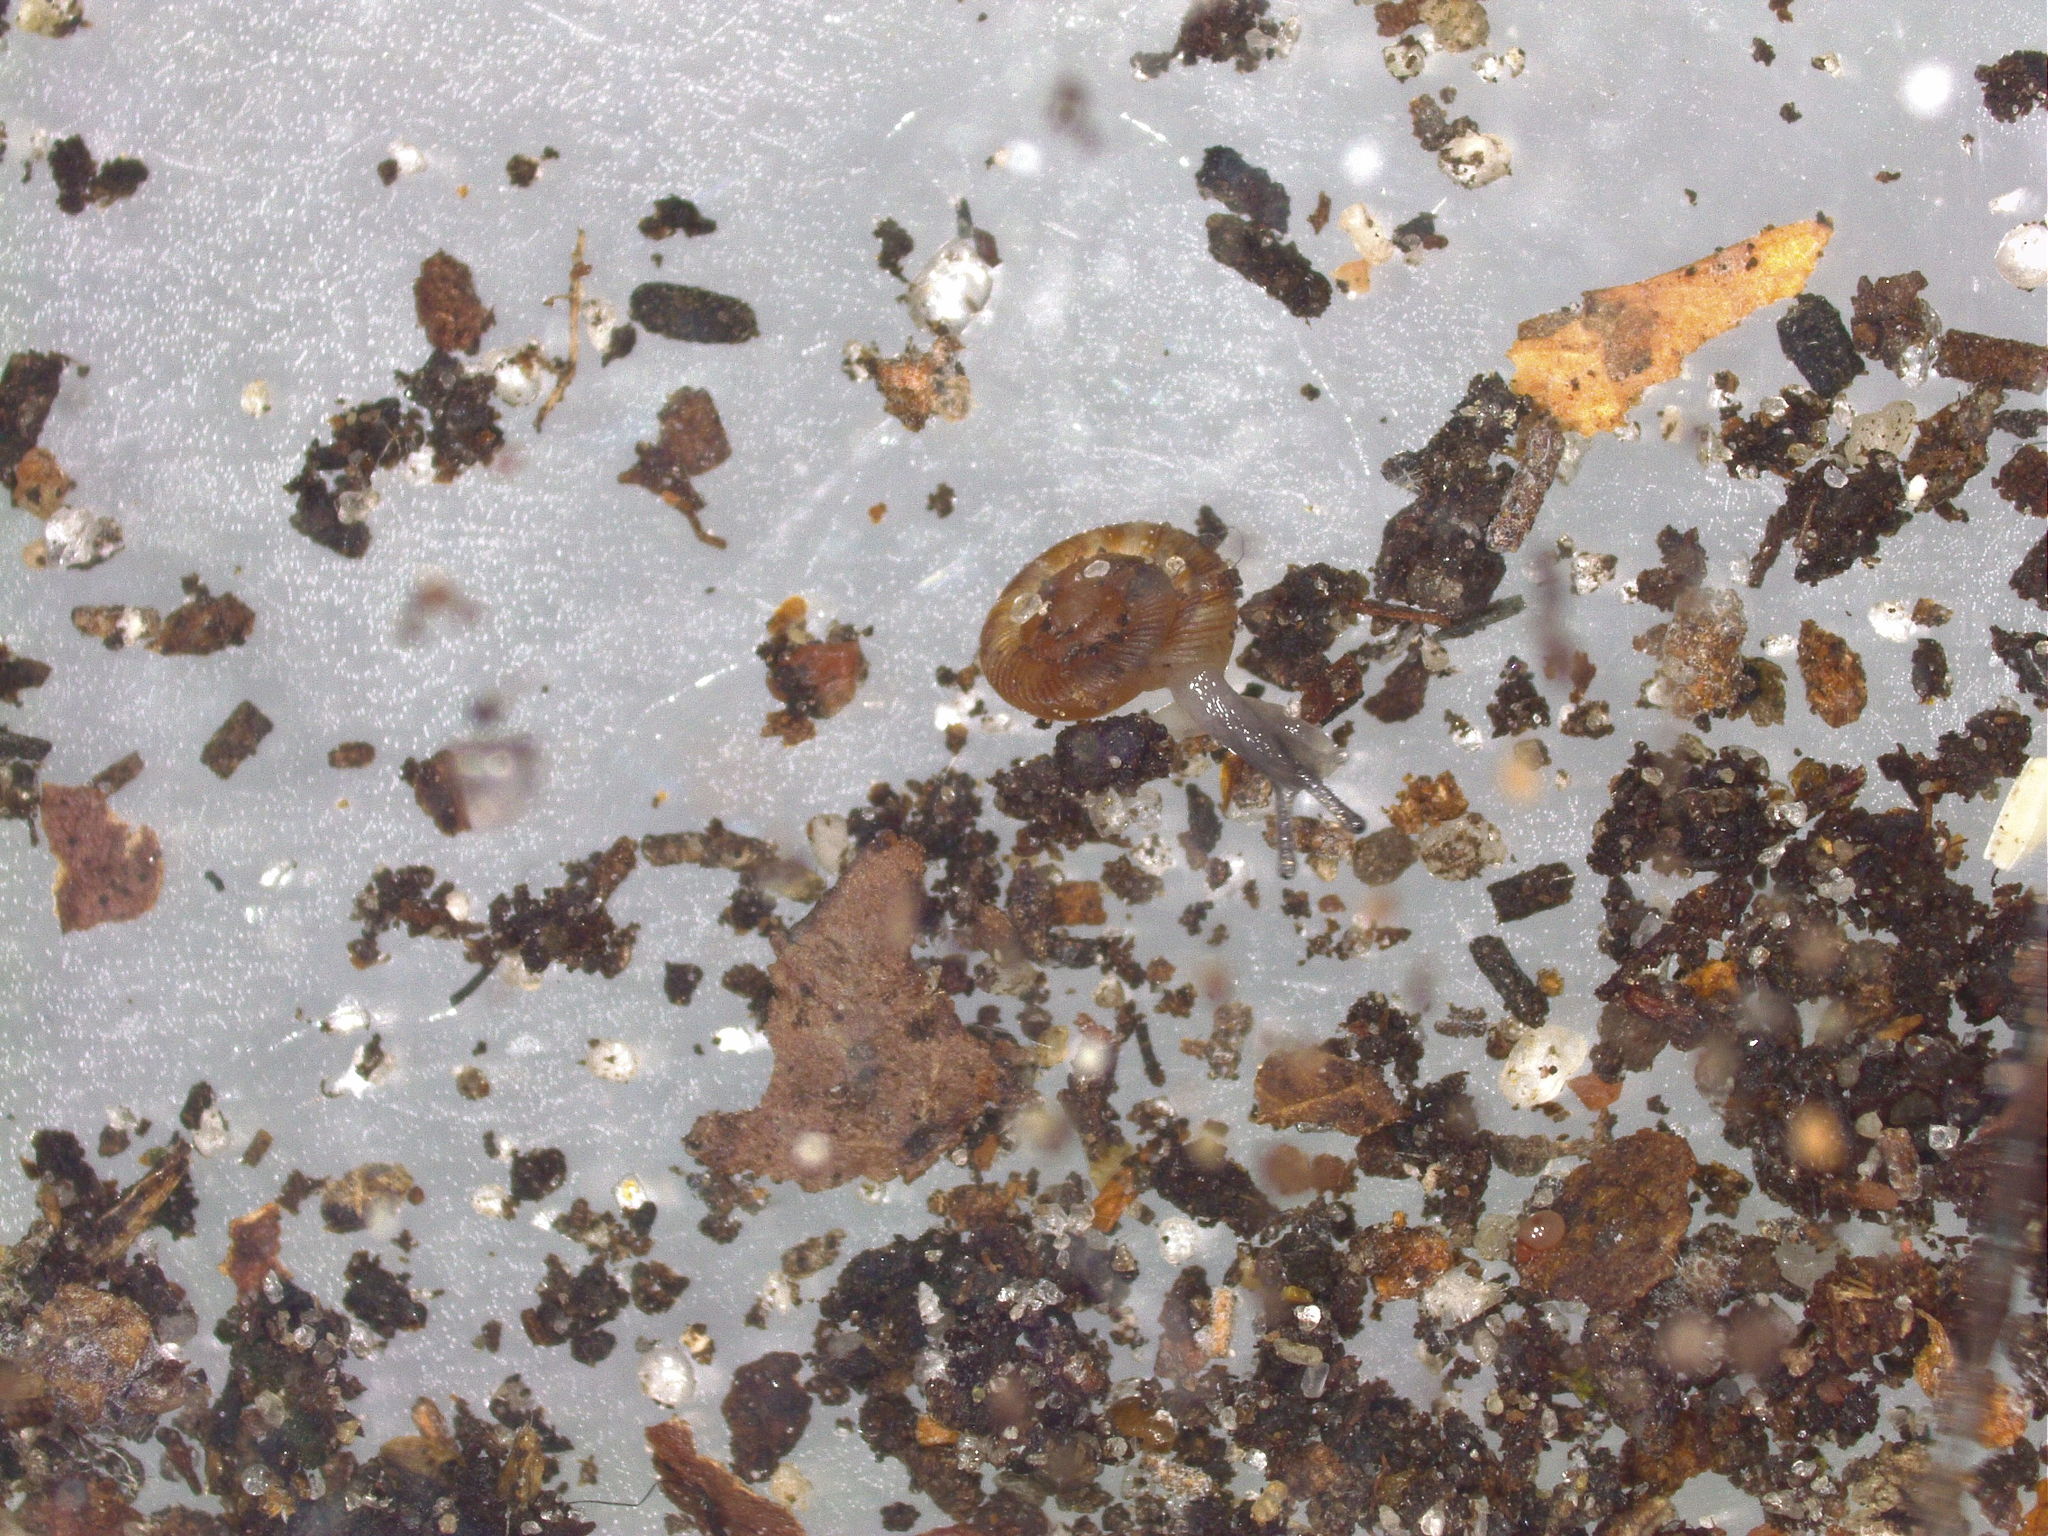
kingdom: Animalia
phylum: Mollusca
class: Gastropoda
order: Stylommatophora
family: Discidae
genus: Discus
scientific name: Discus rotundatus
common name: Rounded snail
